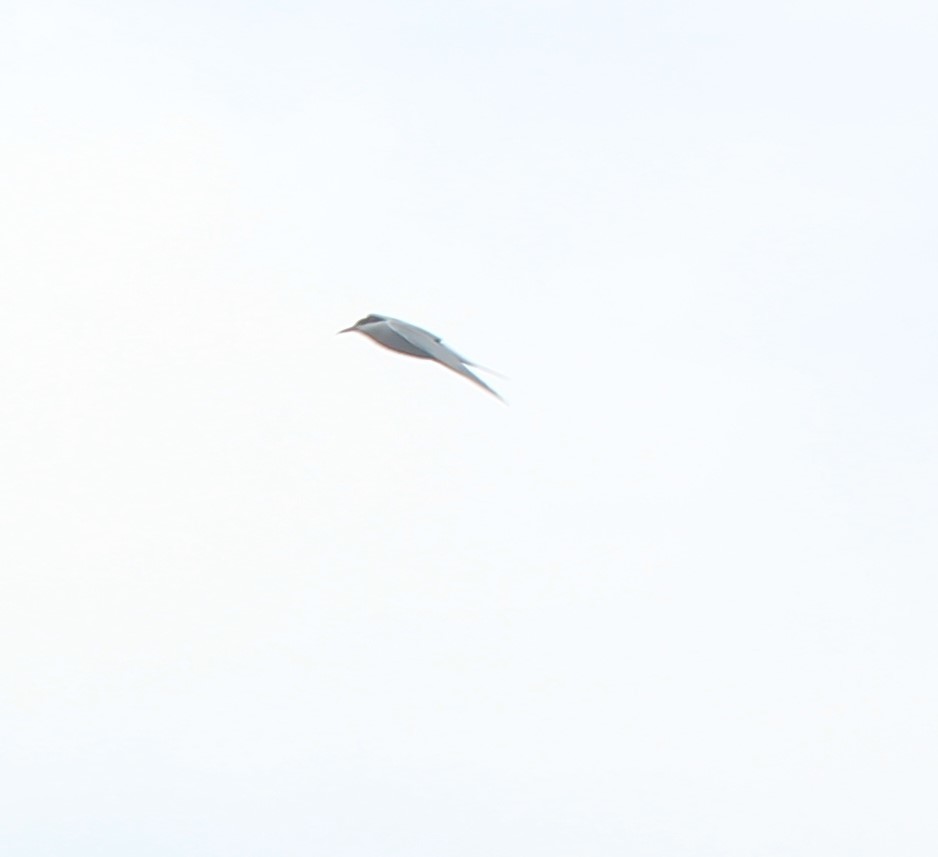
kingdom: Animalia
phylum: Chordata
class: Aves
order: Charadriiformes
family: Laridae
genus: Sterna
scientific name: Sterna hirundo
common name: Common tern
